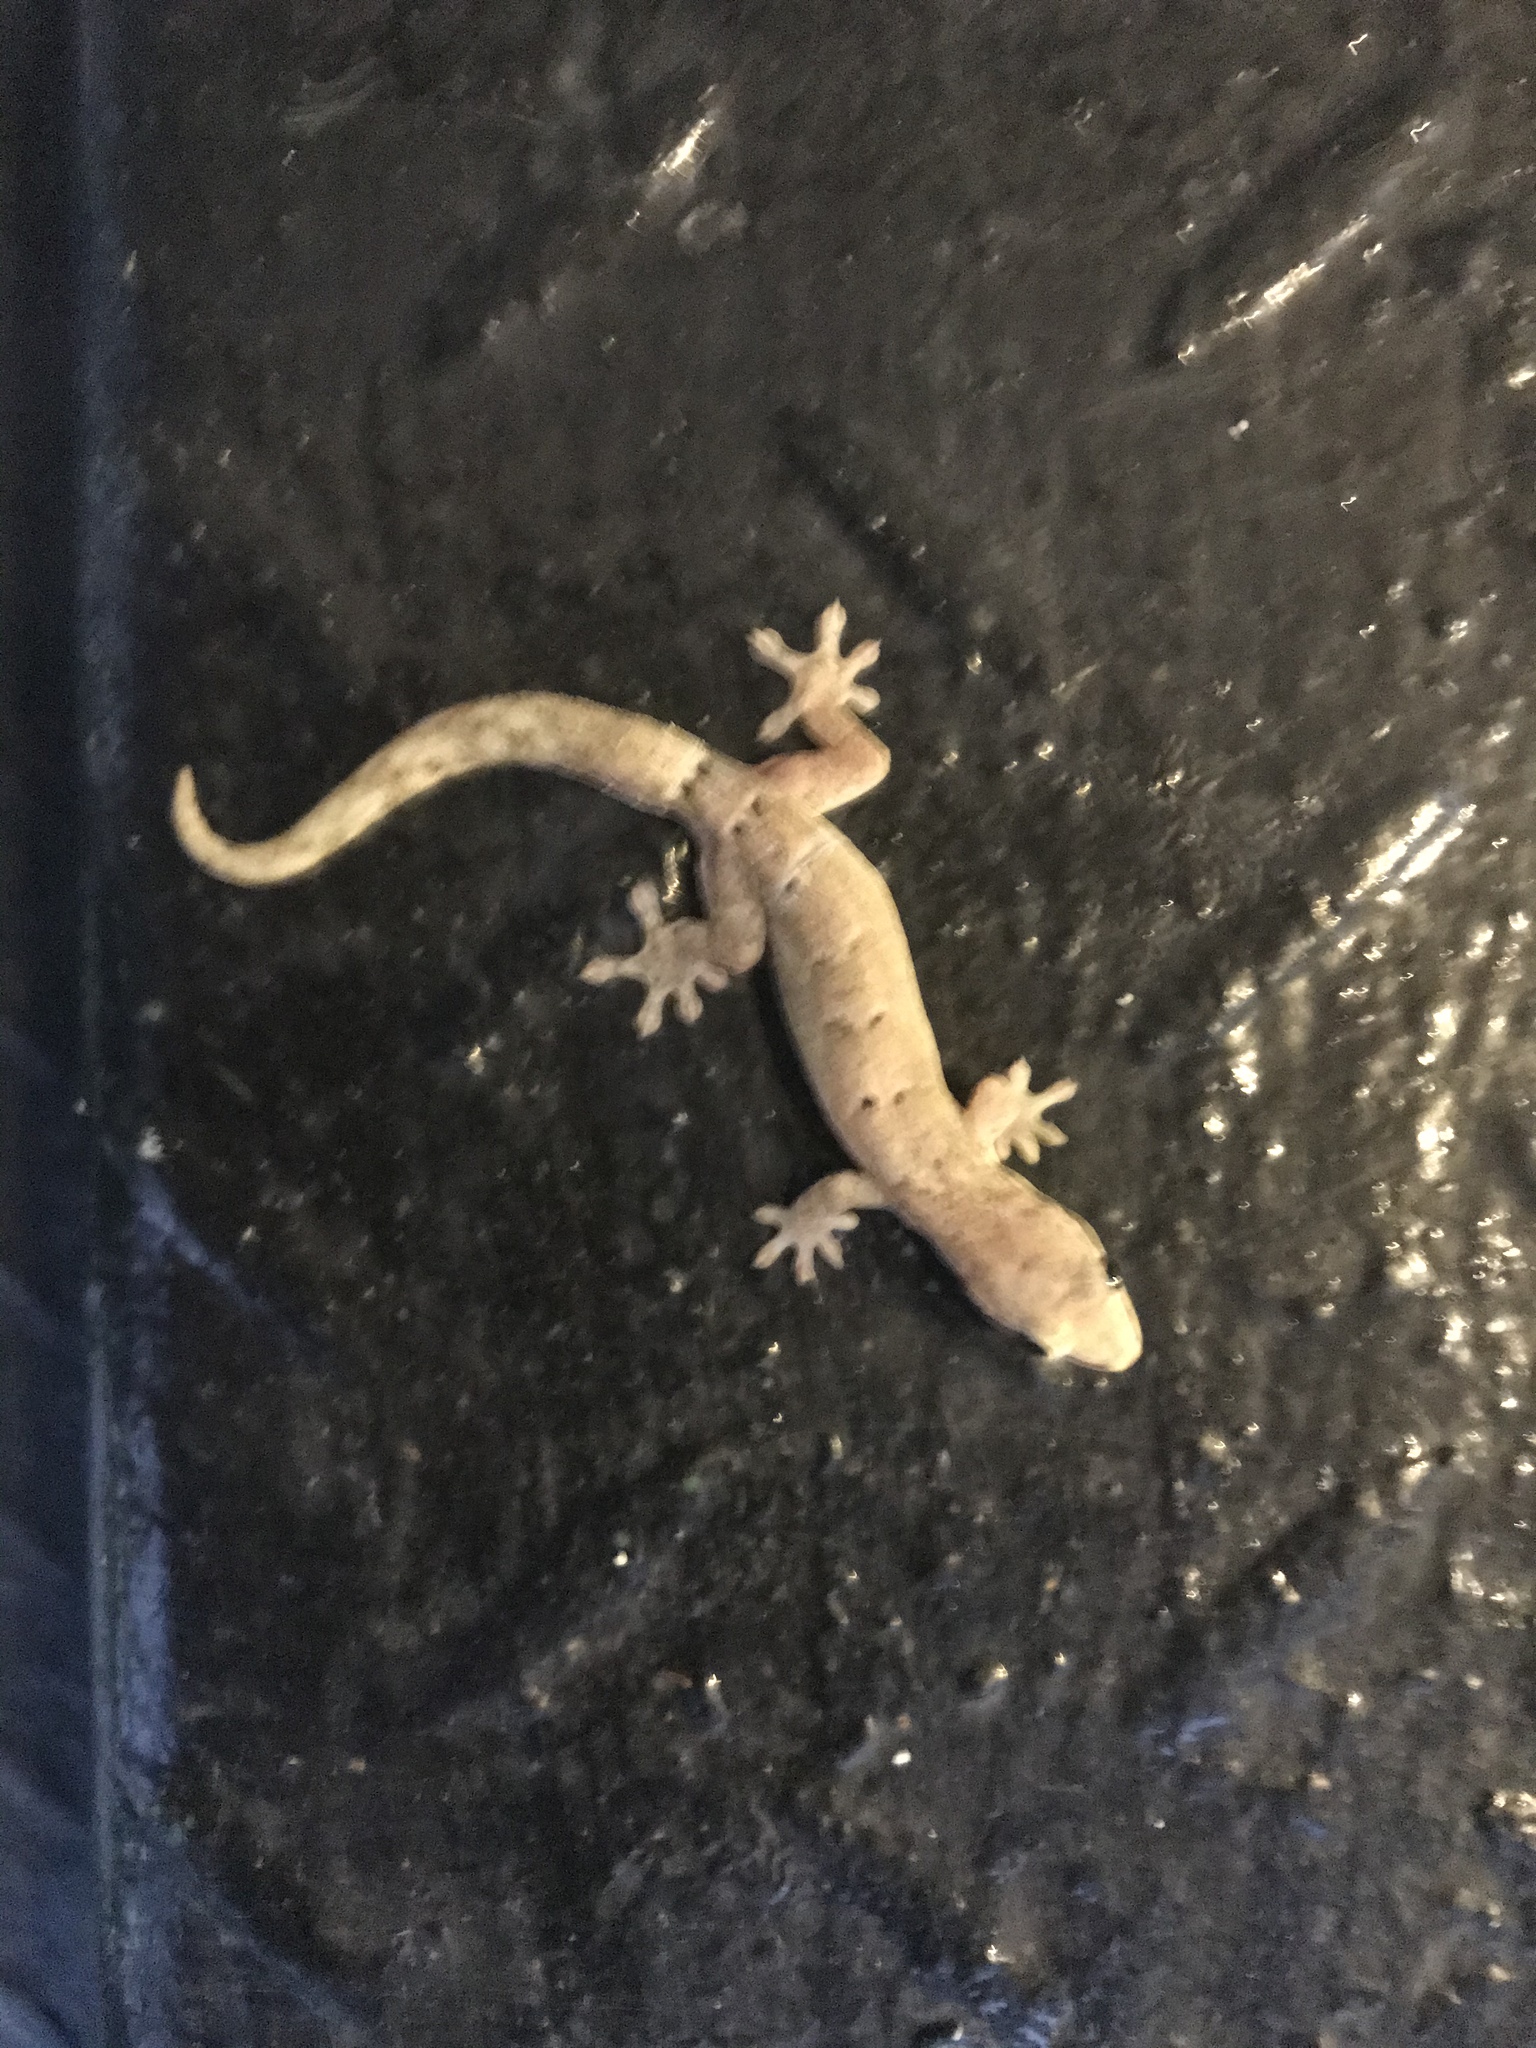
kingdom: Animalia
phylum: Chordata
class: Squamata
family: Gekkonidae
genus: Lepidodactylus
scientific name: Lepidodactylus lugubris
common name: Mourning gecko
